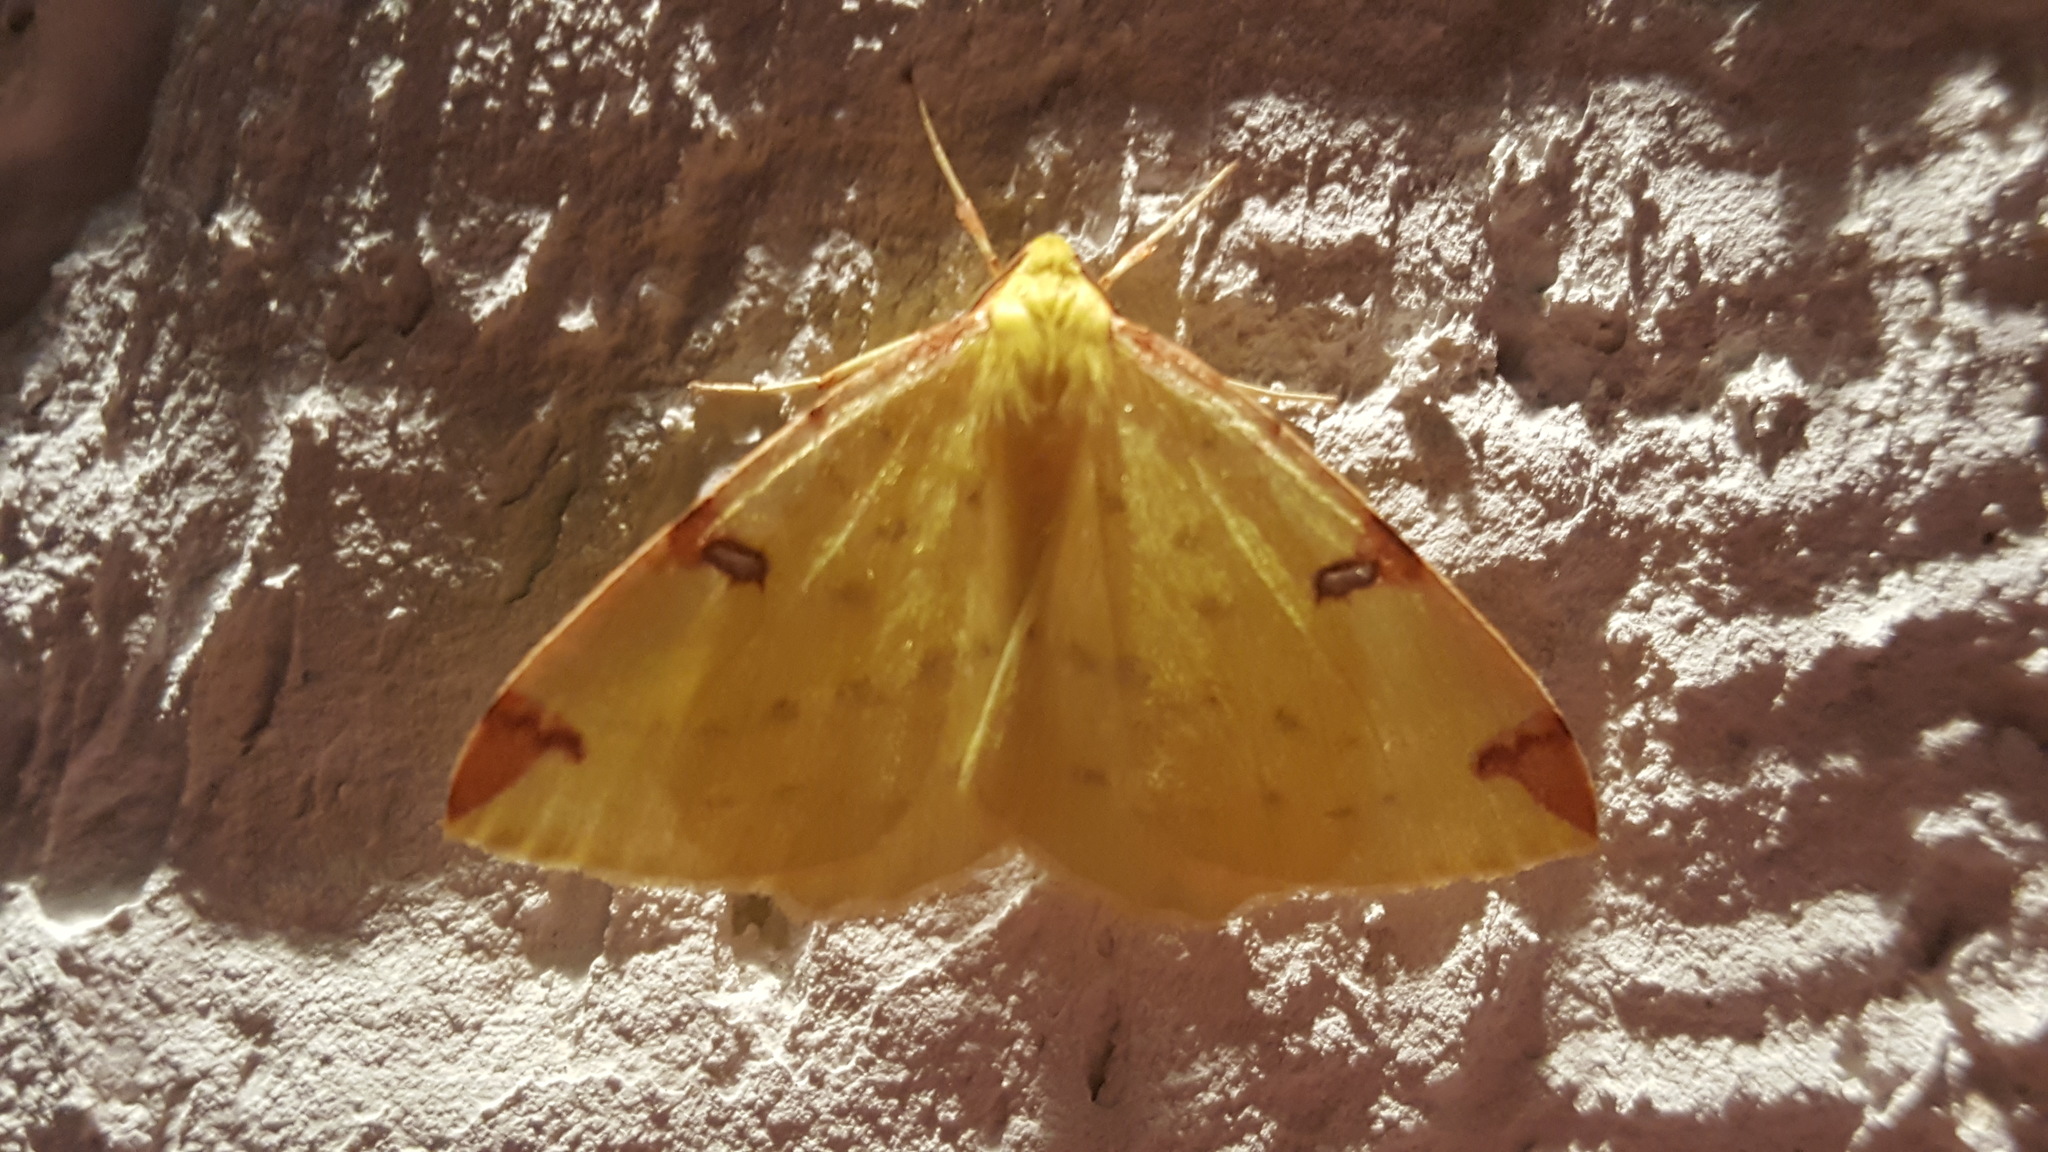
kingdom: Animalia
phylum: Arthropoda
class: Insecta
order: Lepidoptera
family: Geometridae
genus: Opisthograptis
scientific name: Opisthograptis luteolata
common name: Brimstone moth
